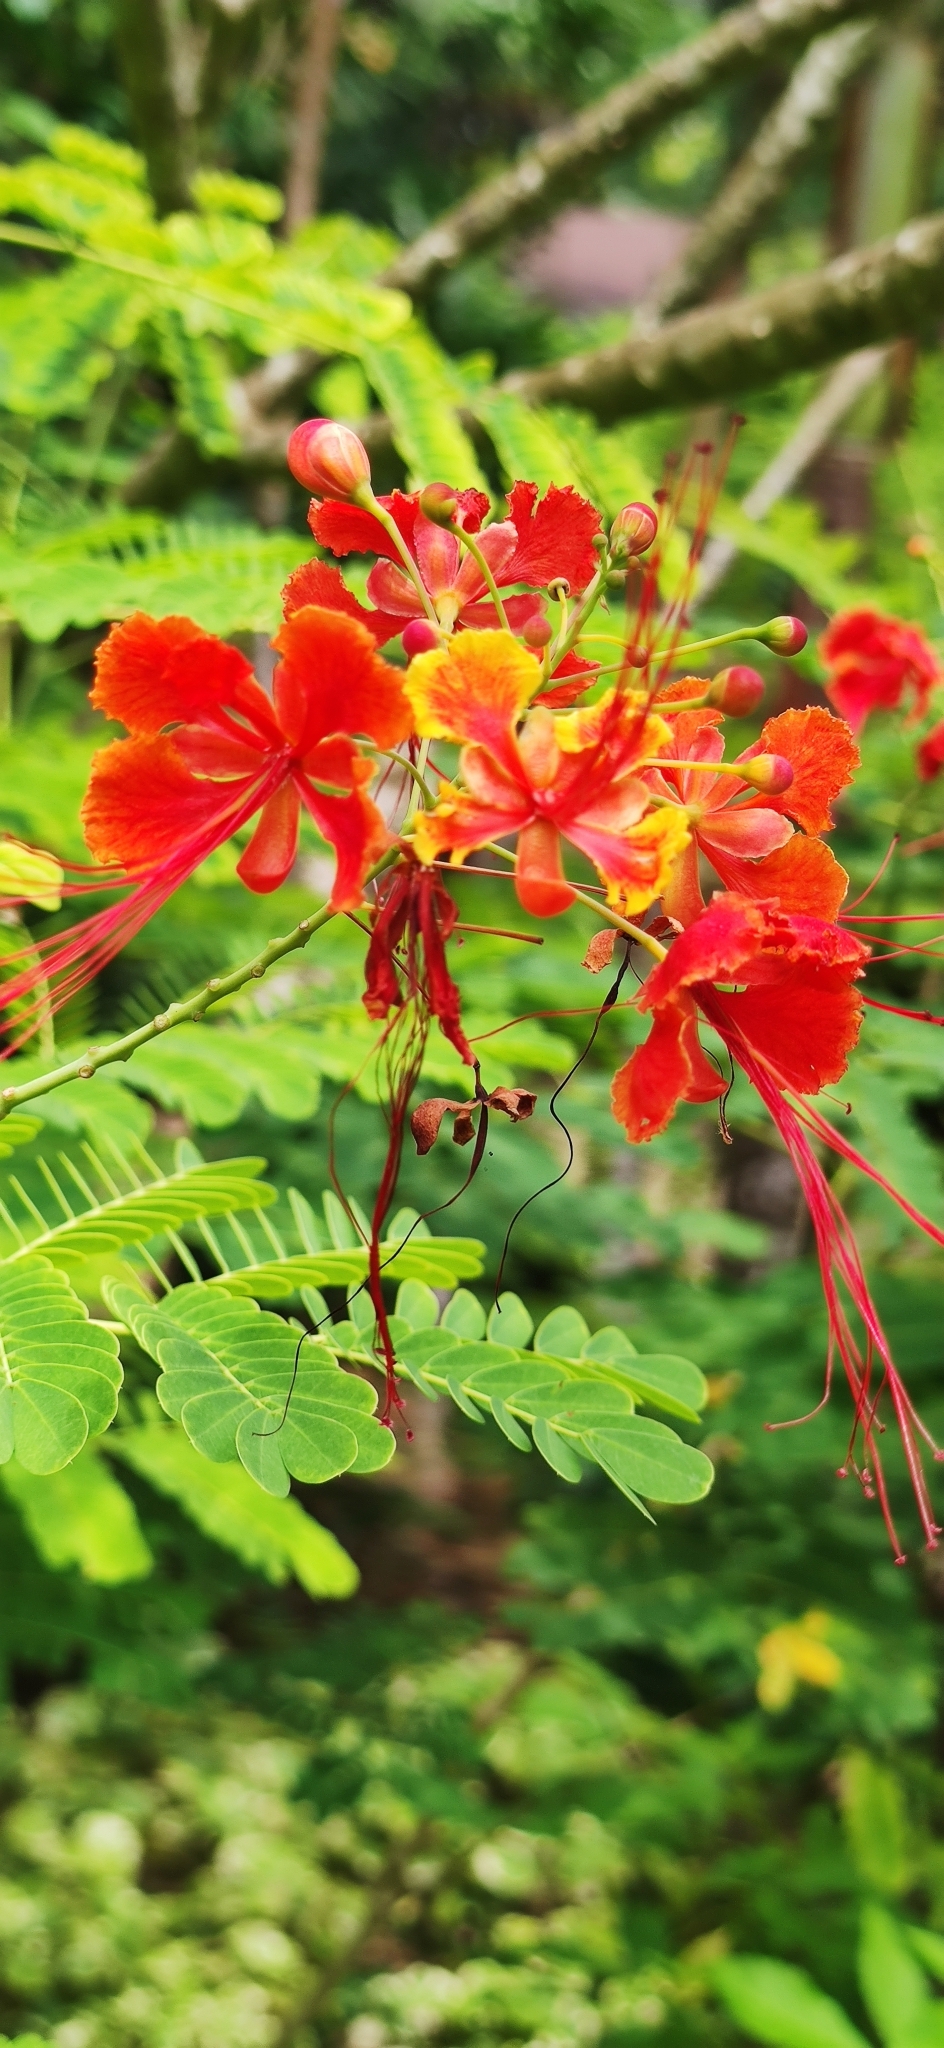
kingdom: Plantae
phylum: Tracheophyta
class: Magnoliopsida
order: Fabales
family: Fabaceae
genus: Caesalpinia
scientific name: Caesalpinia pulcherrima
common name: Pride-of-barbados
